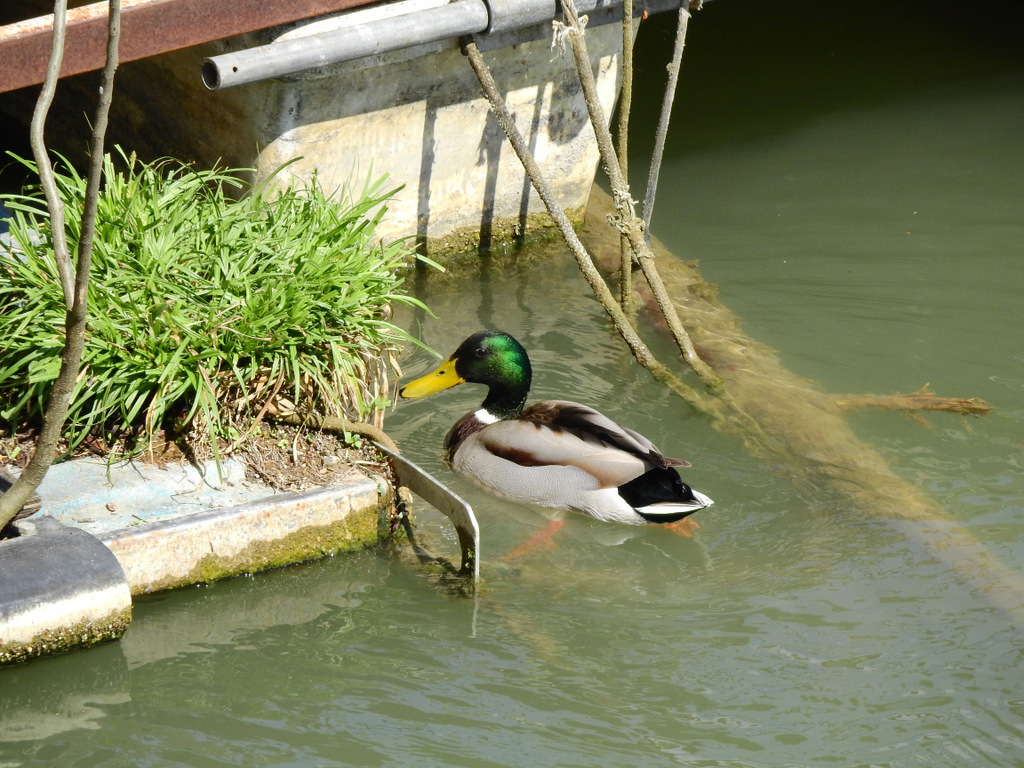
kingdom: Animalia
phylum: Chordata
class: Aves
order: Anseriformes
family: Anatidae
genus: Anas
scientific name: Anas platyrhynchos
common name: Mallard
